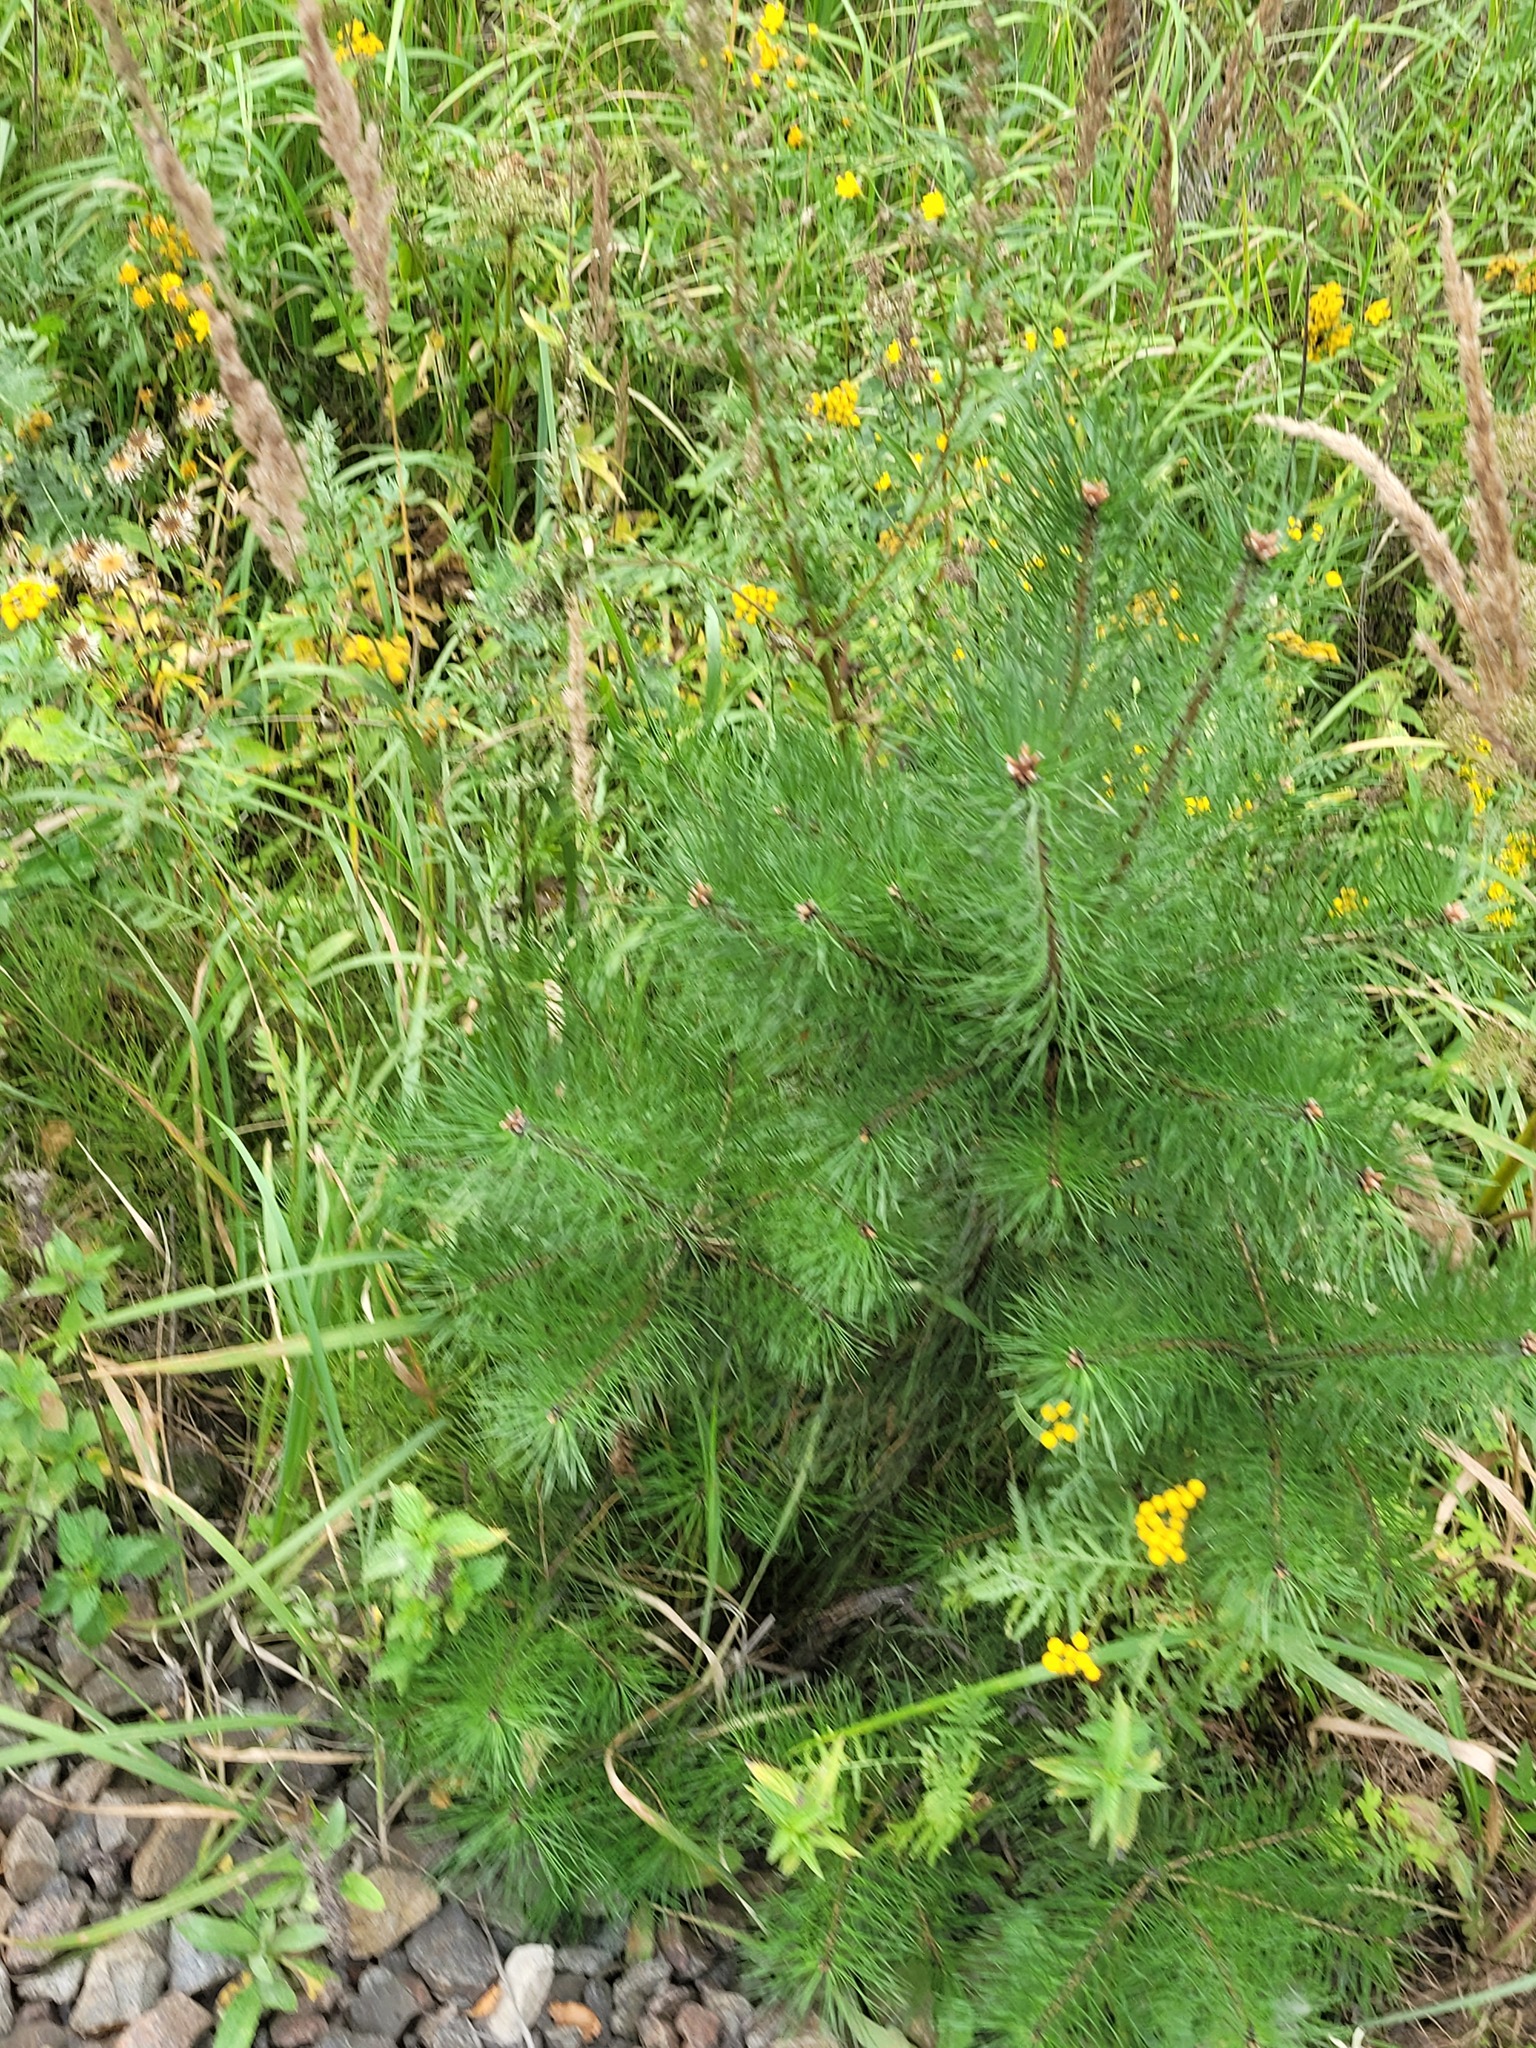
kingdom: Plantae
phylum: Tracheophyta
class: Pinopsida
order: Pinales
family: Pinaceae
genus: Pinus
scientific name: Pinus sylvestris
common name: Scots pine
